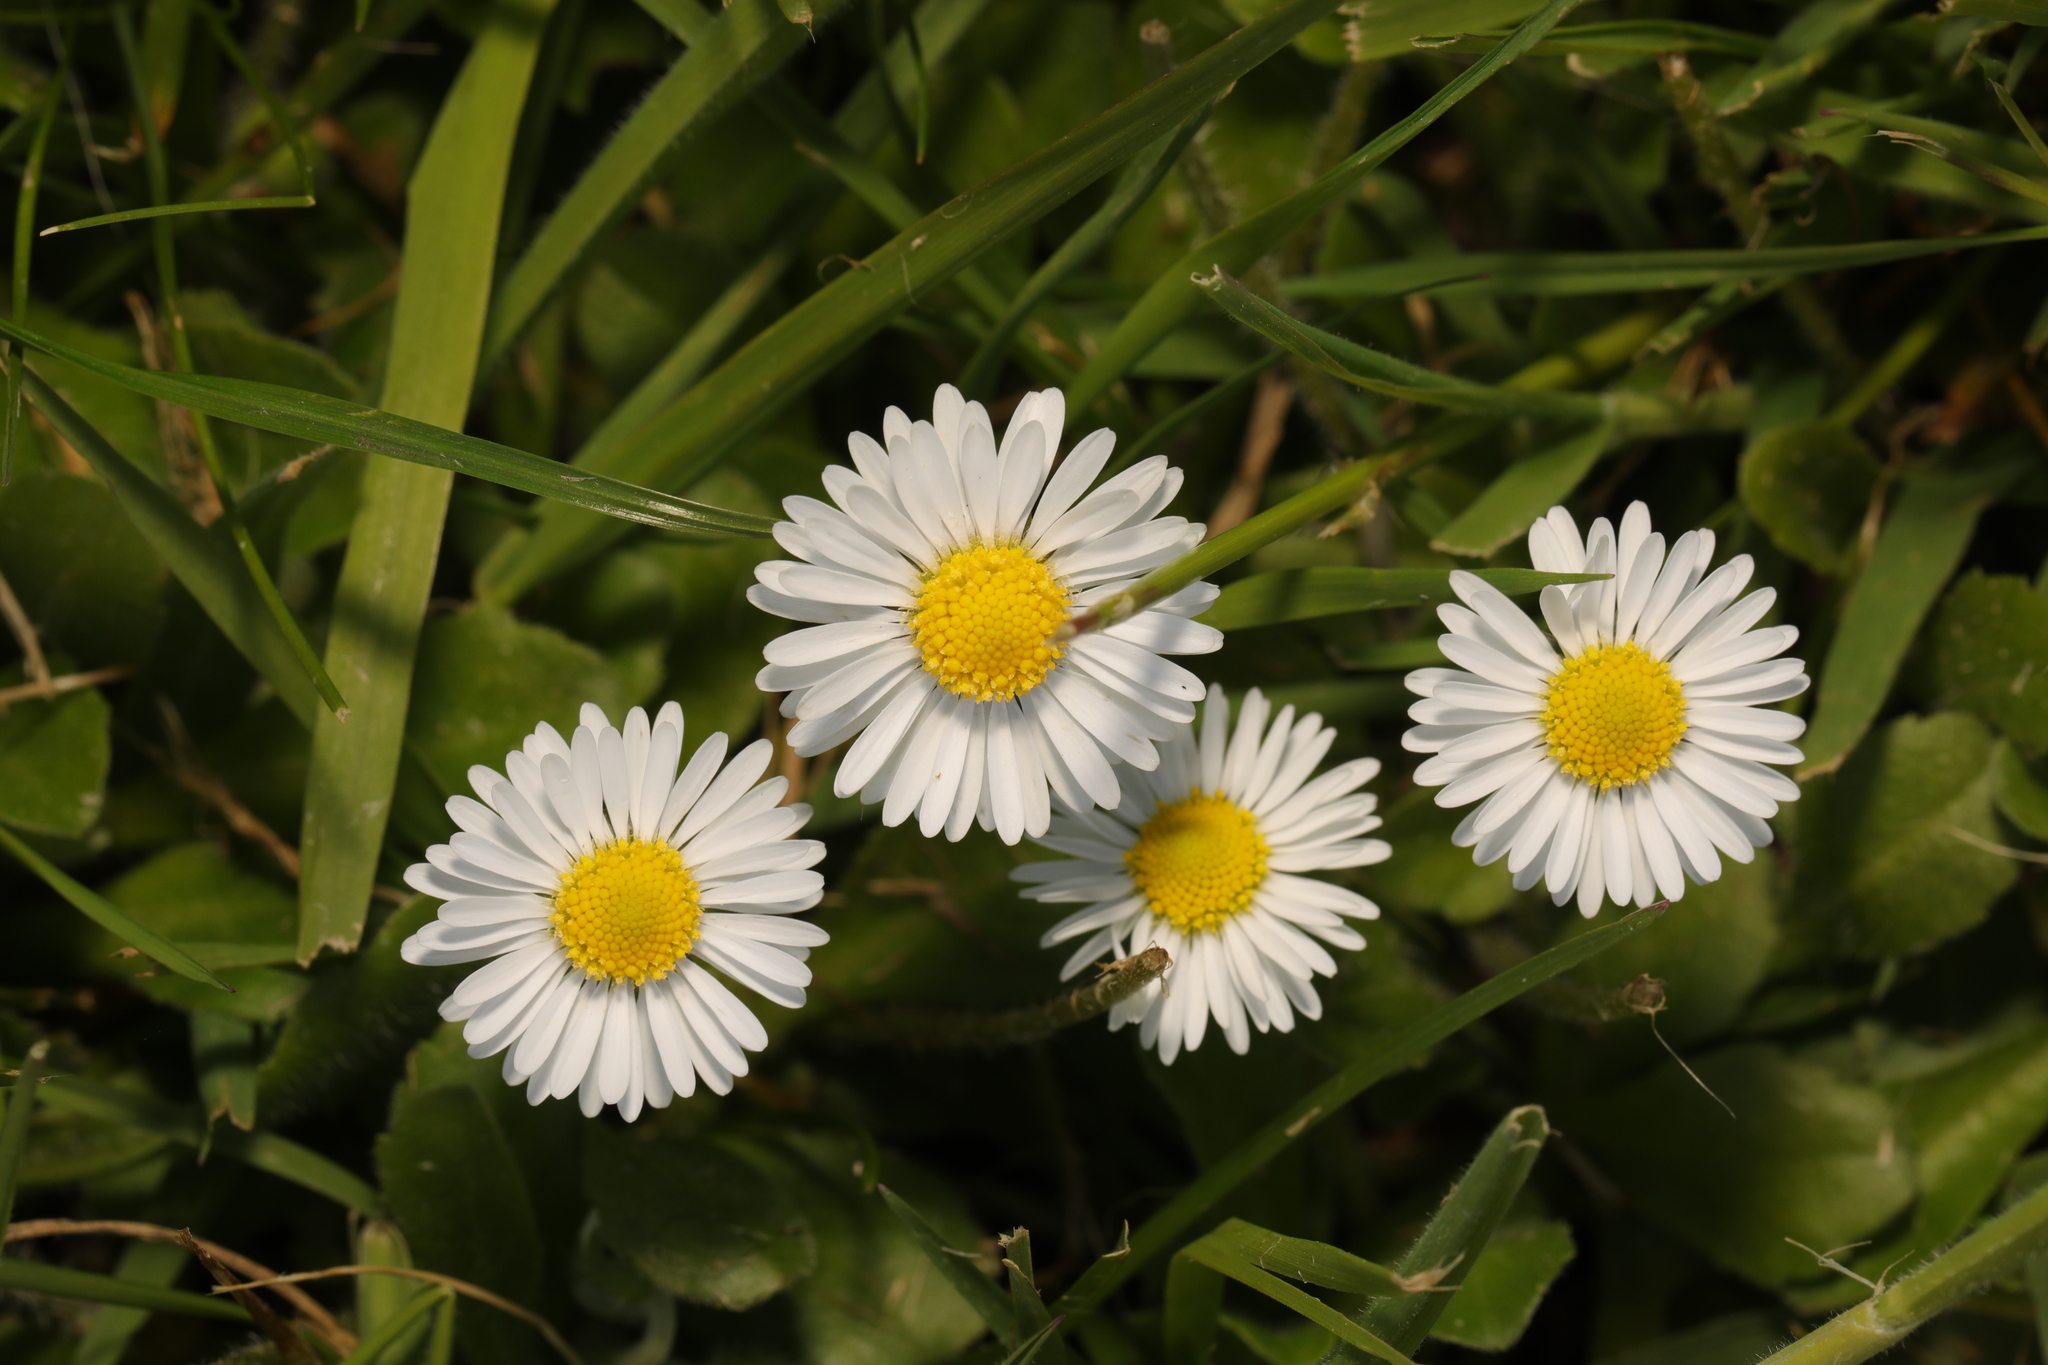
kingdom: Plantae
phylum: Tracheophyta
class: Magnoliopsida
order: Asterales
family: Asteraceae
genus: Bellis
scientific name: Bellis perennis
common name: Lawndaisy
